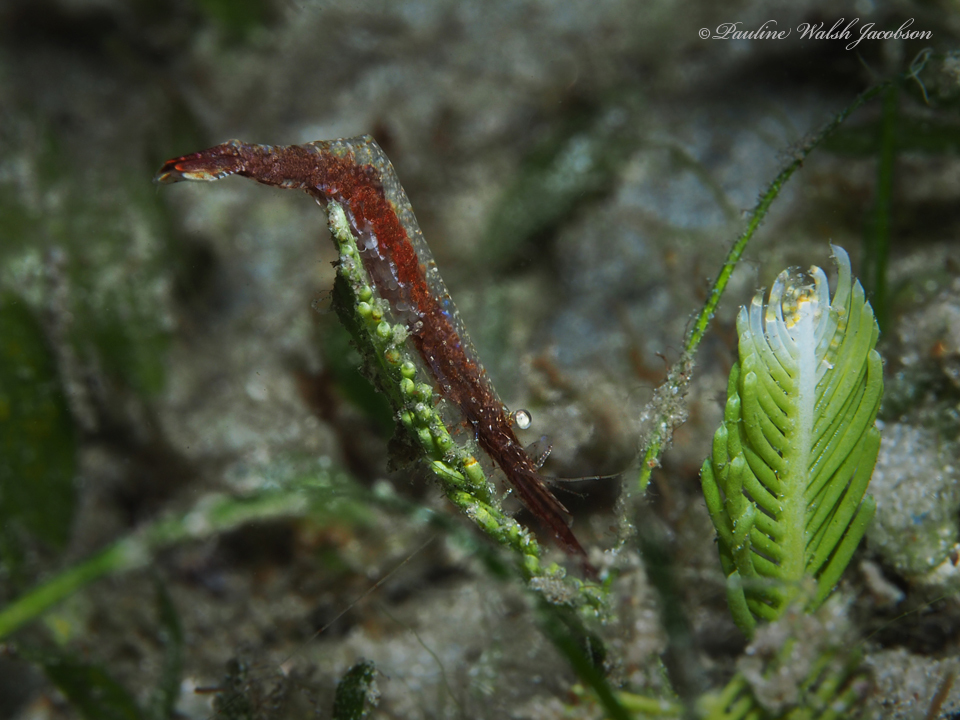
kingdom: Animalia
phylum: Arthropoda
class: Malacostraca
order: Decapoda
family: Hippolytidae
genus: Tozeuma
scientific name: Tozeuma serratum
